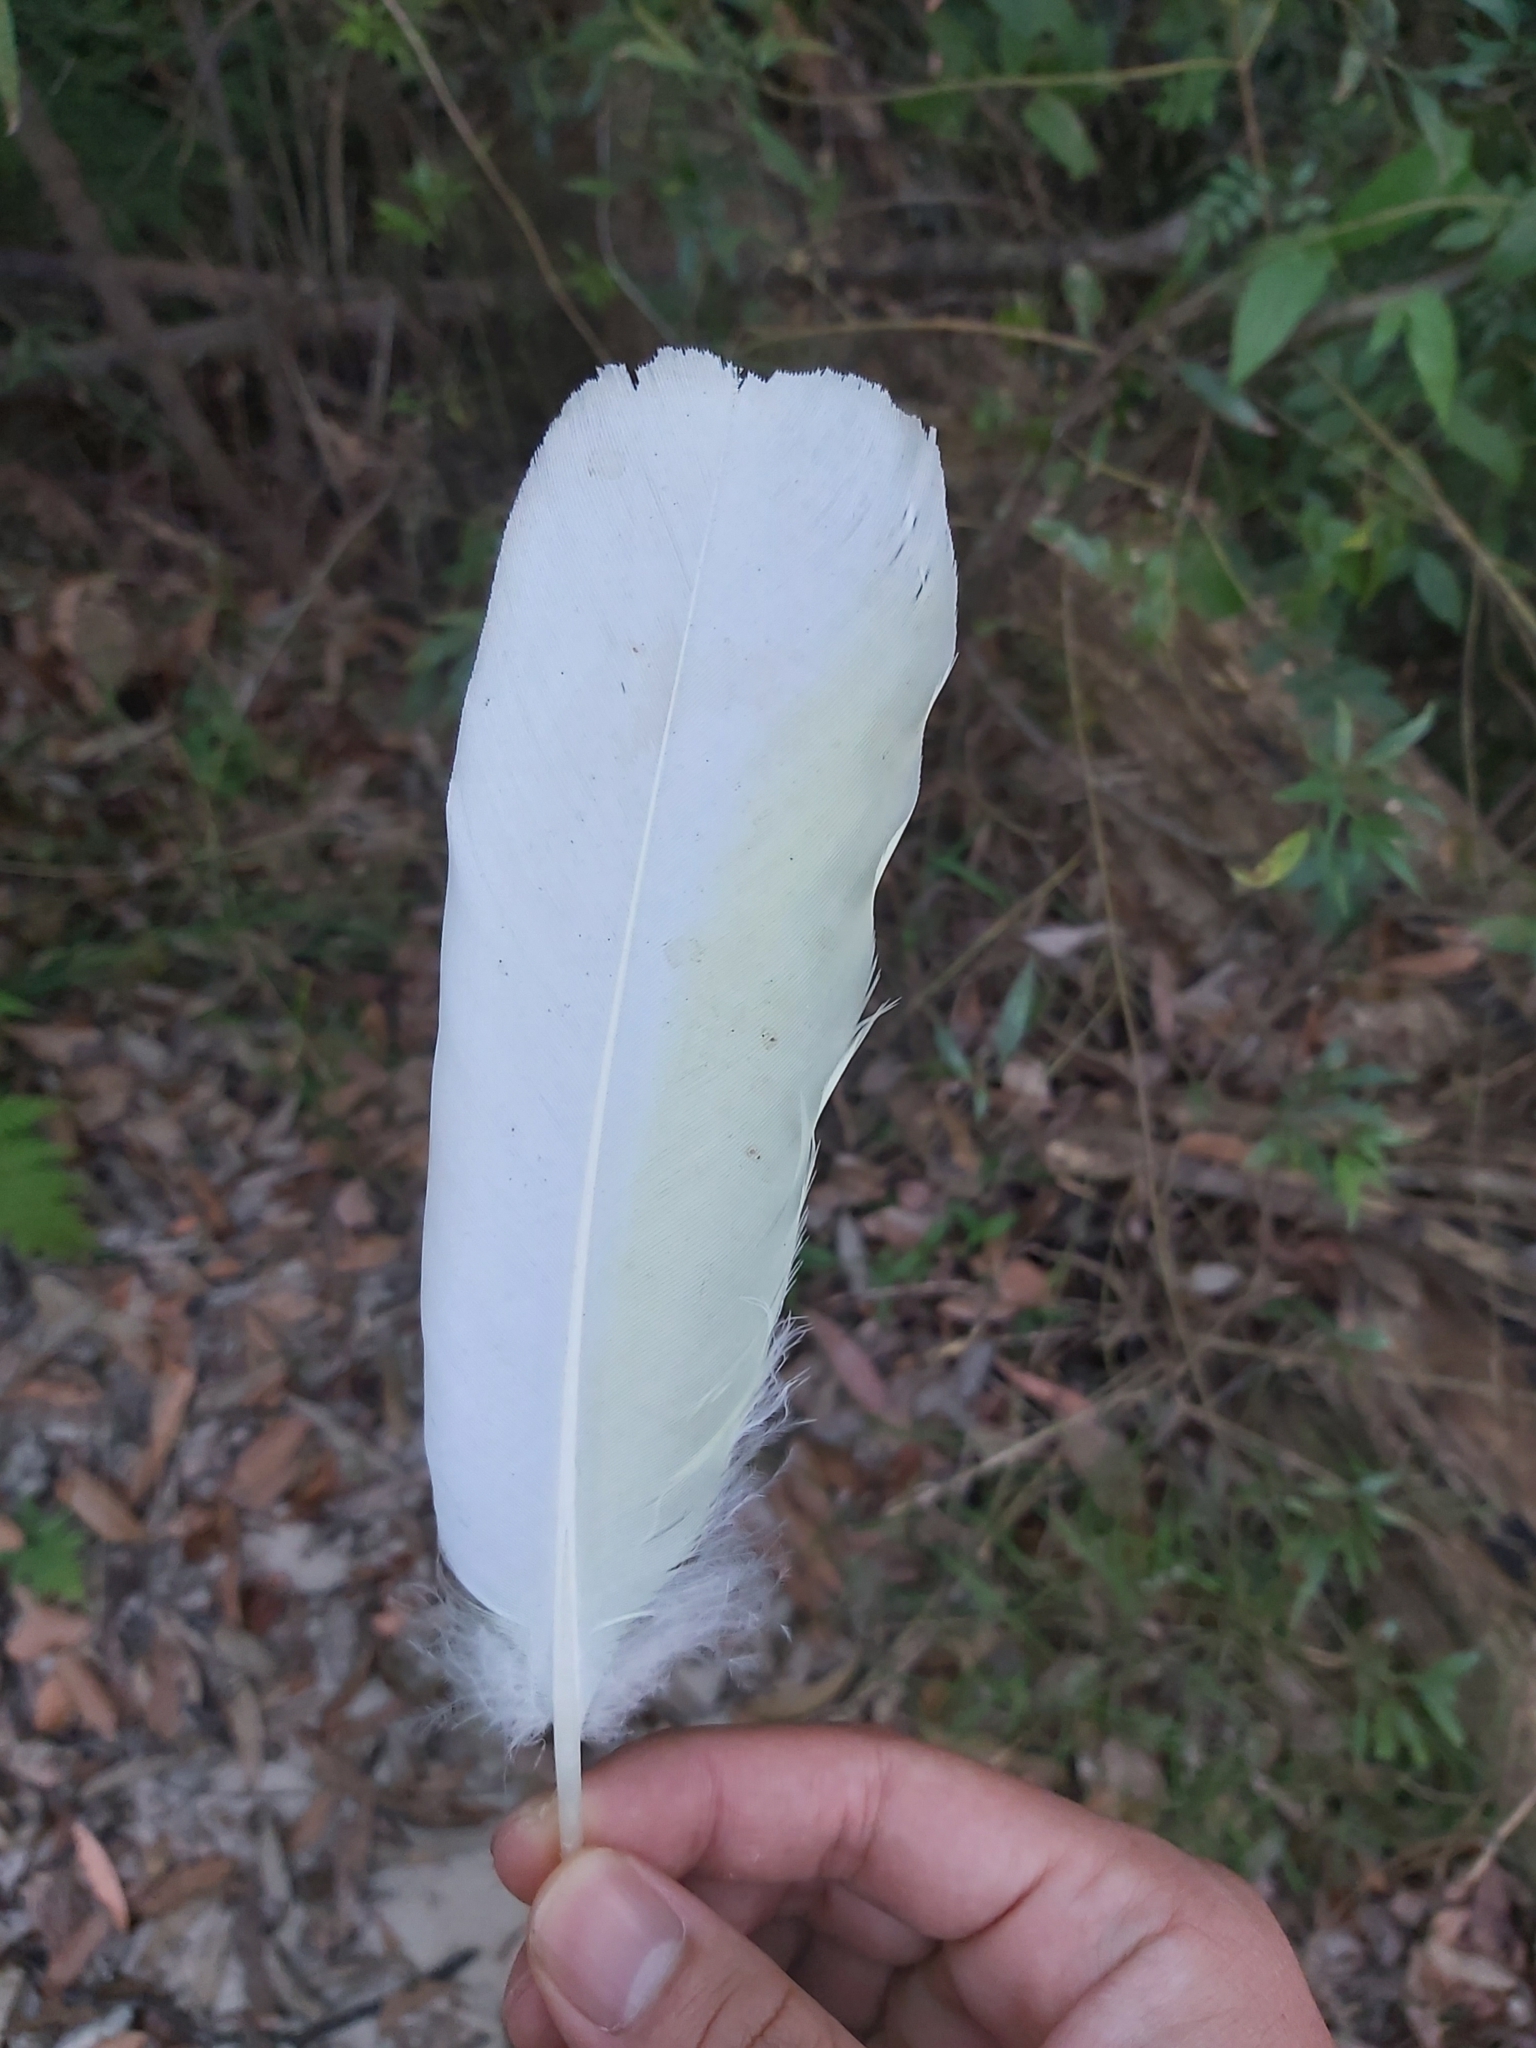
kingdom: Animalia
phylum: Chordata
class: Aves
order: Psittaciformes
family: Psittacidae
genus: Cacatua
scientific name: Cacatua galerita
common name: Sulphur-crested cockatoo
